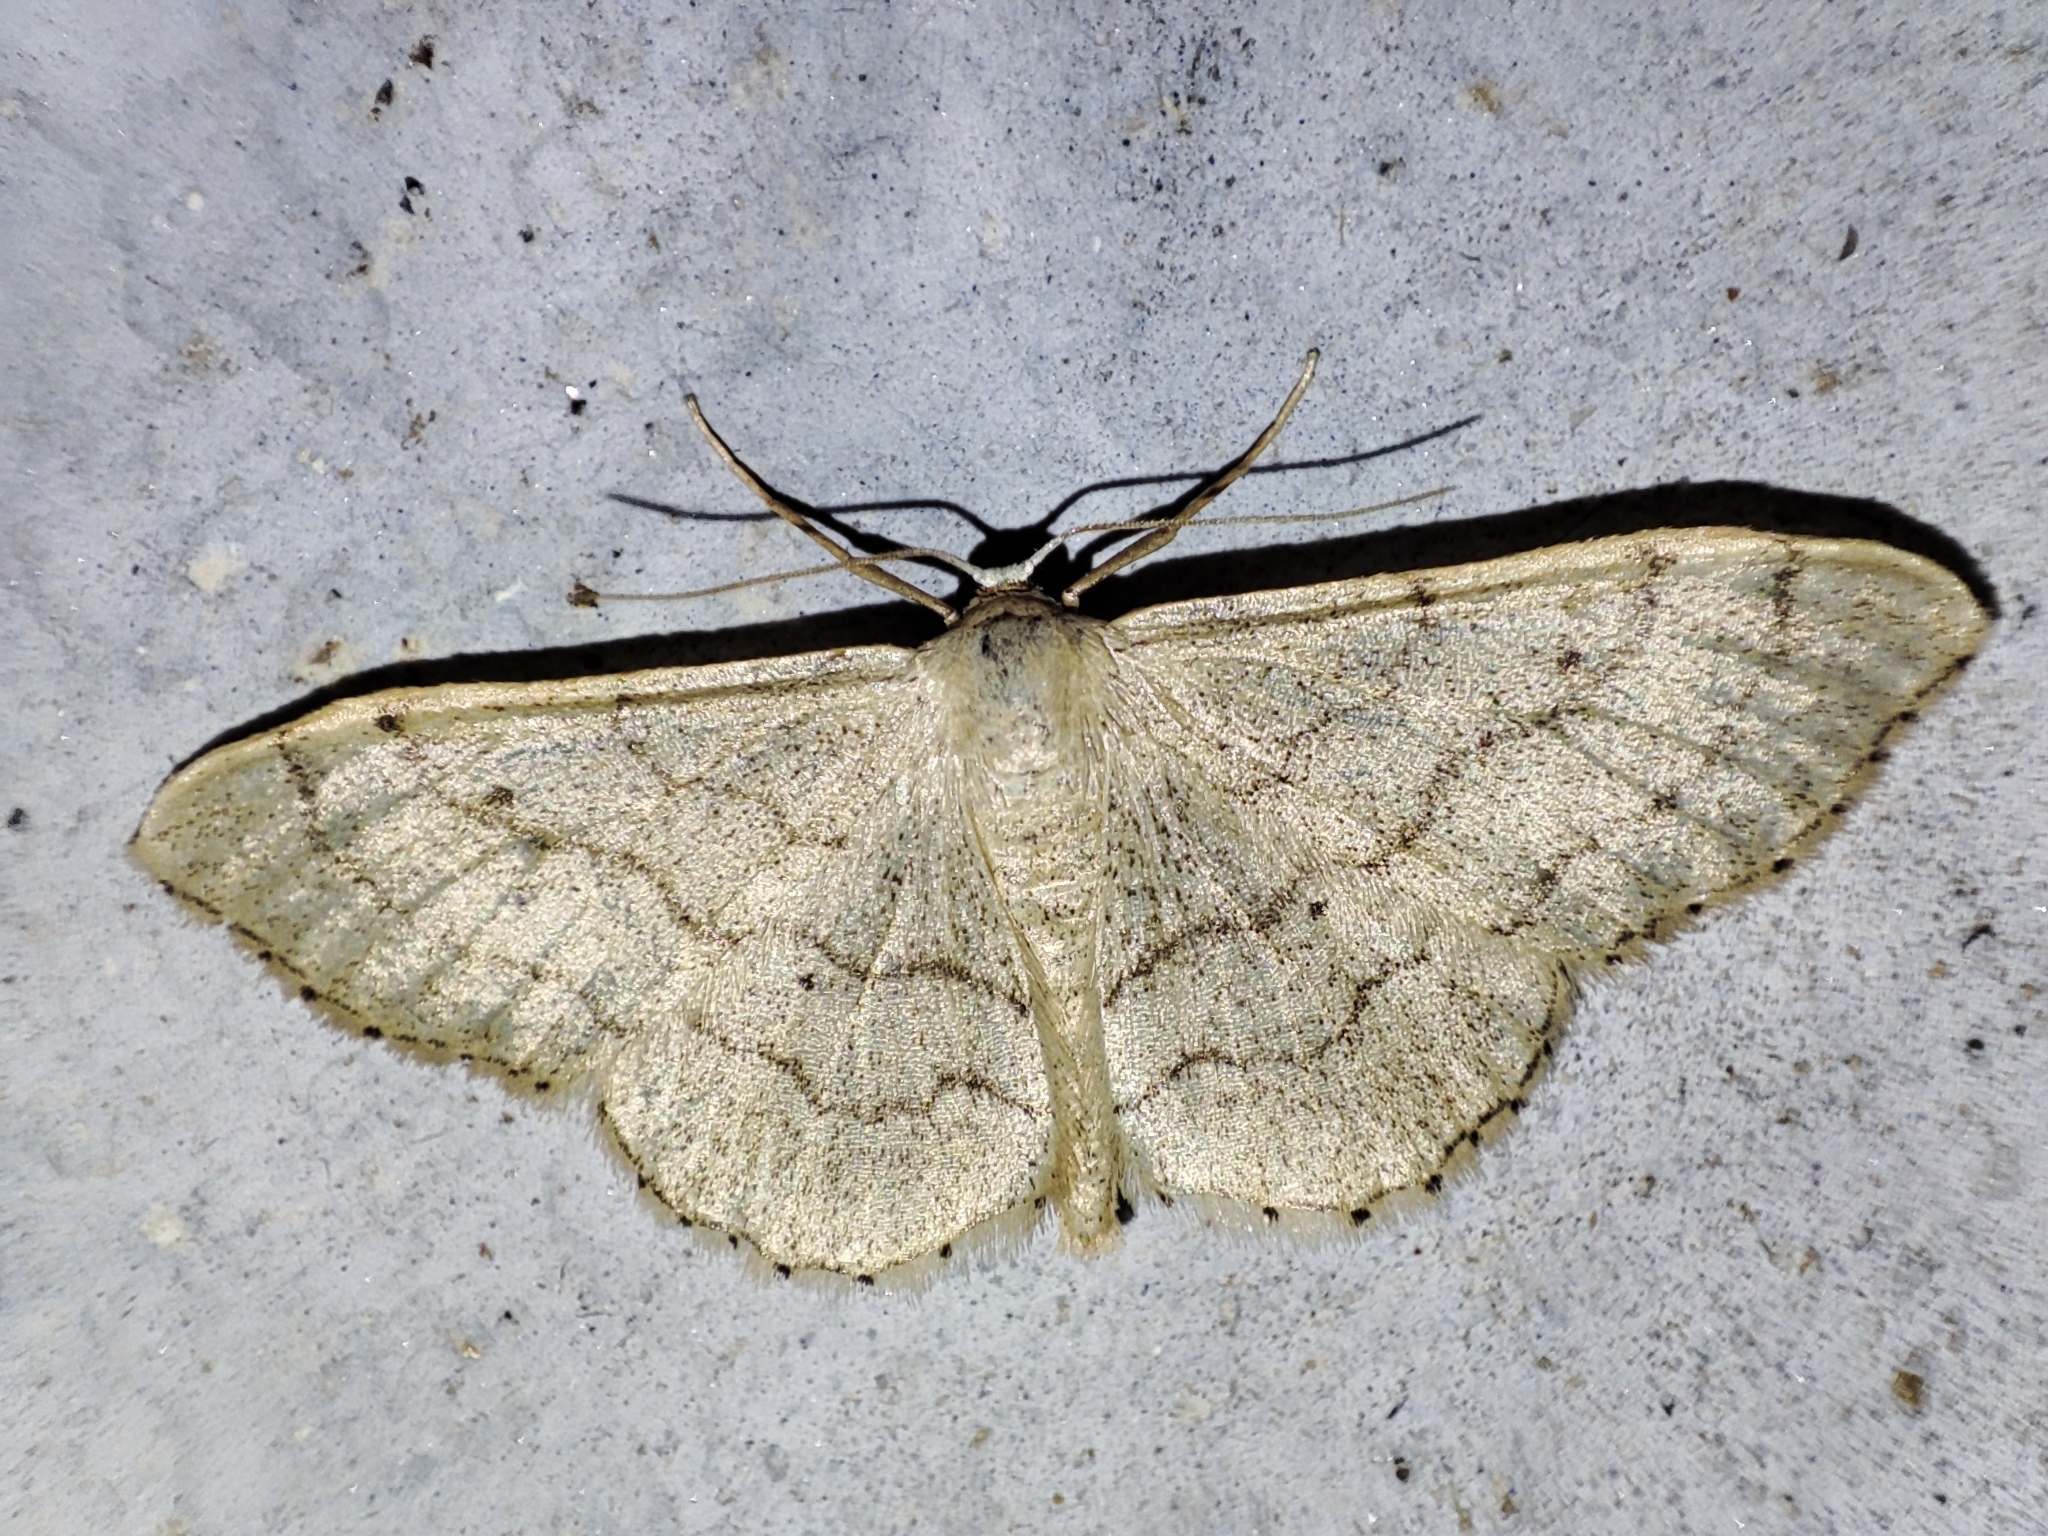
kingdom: Animalia
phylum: Arthropoda
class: Insecta
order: Lepidoptera
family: Geometridae
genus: Idaea
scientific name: Idaea aversata
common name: Riband wave
